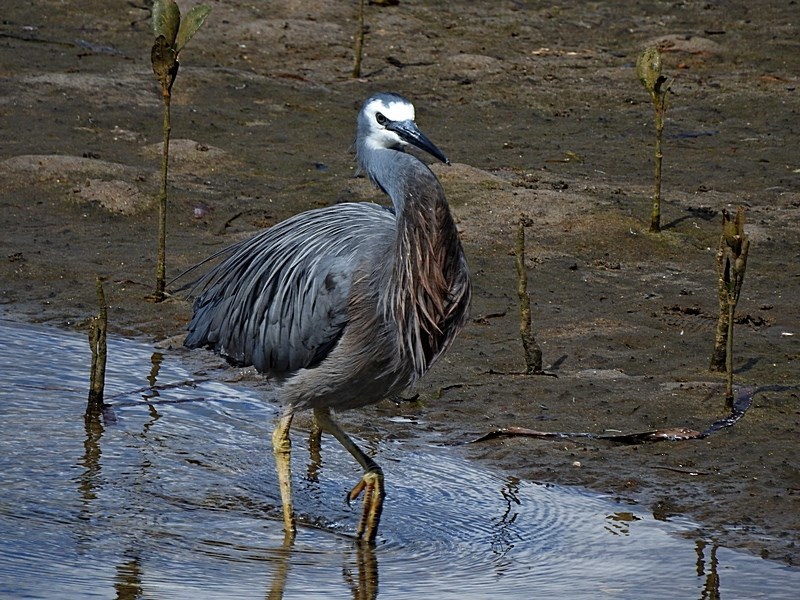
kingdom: Animalia
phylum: Chordata
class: Aves
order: Pelecaniformes
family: Ardeidae
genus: Egretta
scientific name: Egretta novaehollandiae
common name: White-faced heron
